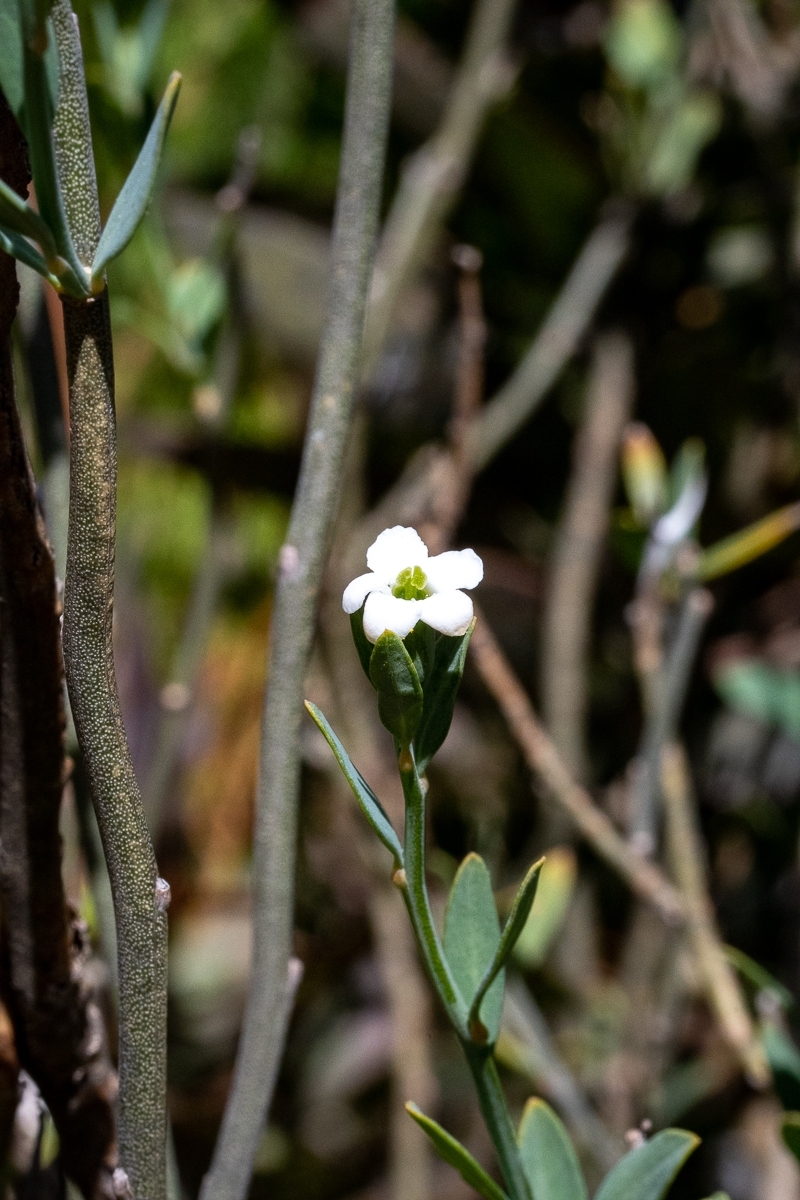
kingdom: Plantae
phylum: Tracheophyta
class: Magnoliopsida
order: Solanales
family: Montiniaceae
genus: Montinia
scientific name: Montinia caryophyllacea
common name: Wild clove-bush
